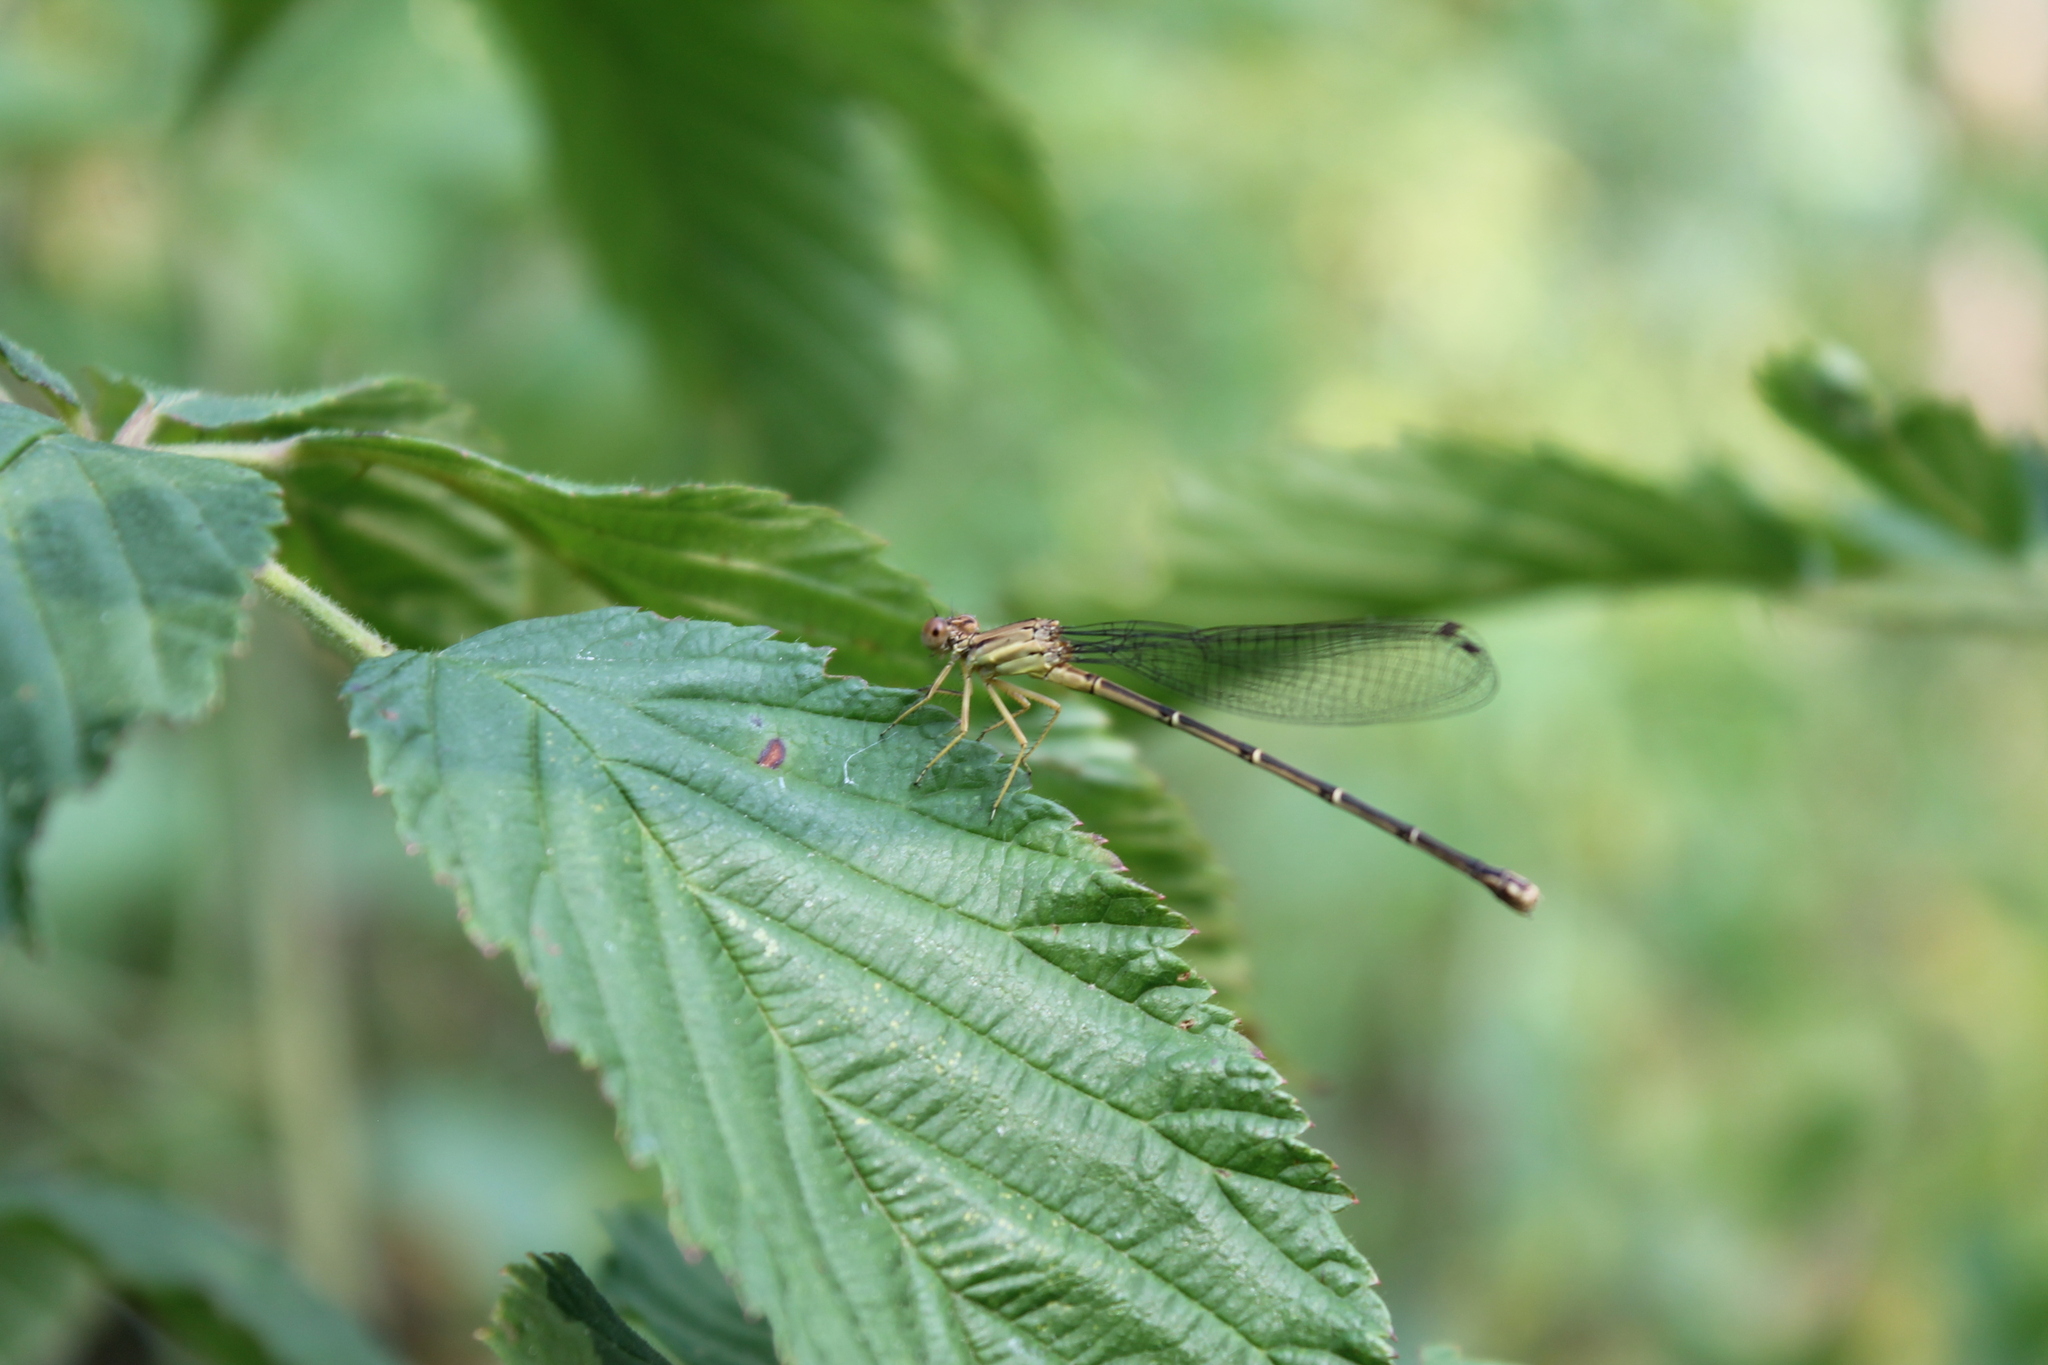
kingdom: Animalia
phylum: Arthropoda
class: Insecta
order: Odonata
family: Coenagrionidae
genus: Argia
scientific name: Argia apicalis
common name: Blue-fronted dancer
